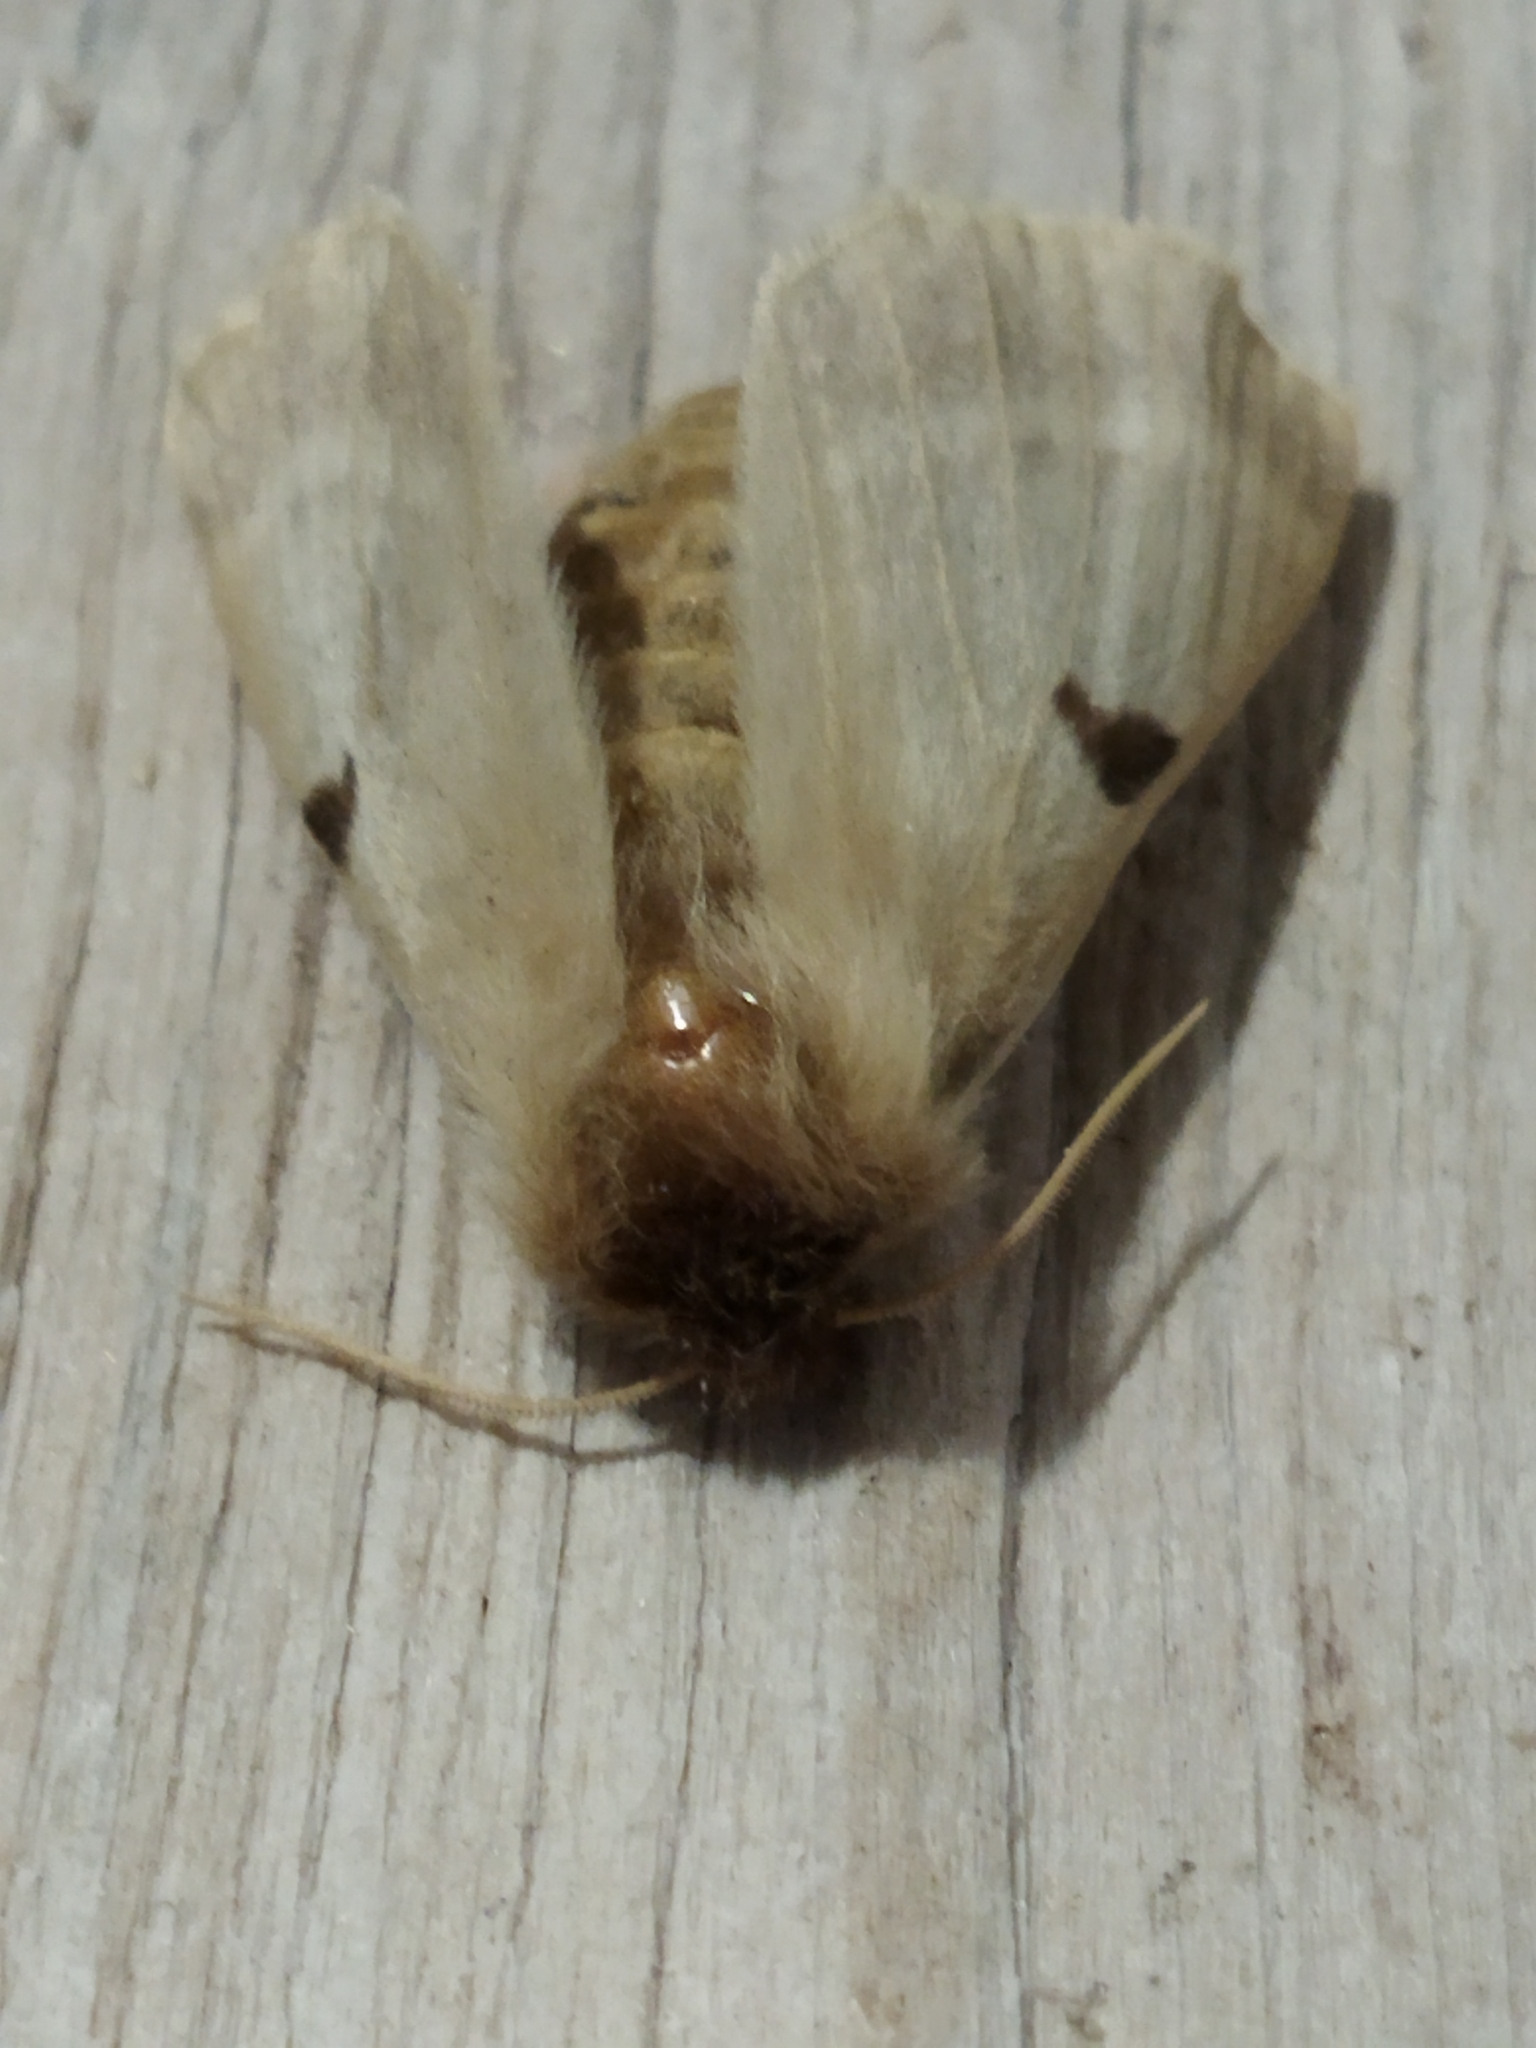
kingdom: Animalia
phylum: Arthropoda
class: Insecta
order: Lepidoptera
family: Brahmaeidae
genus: Lemonia
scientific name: Lemonia balcanica
